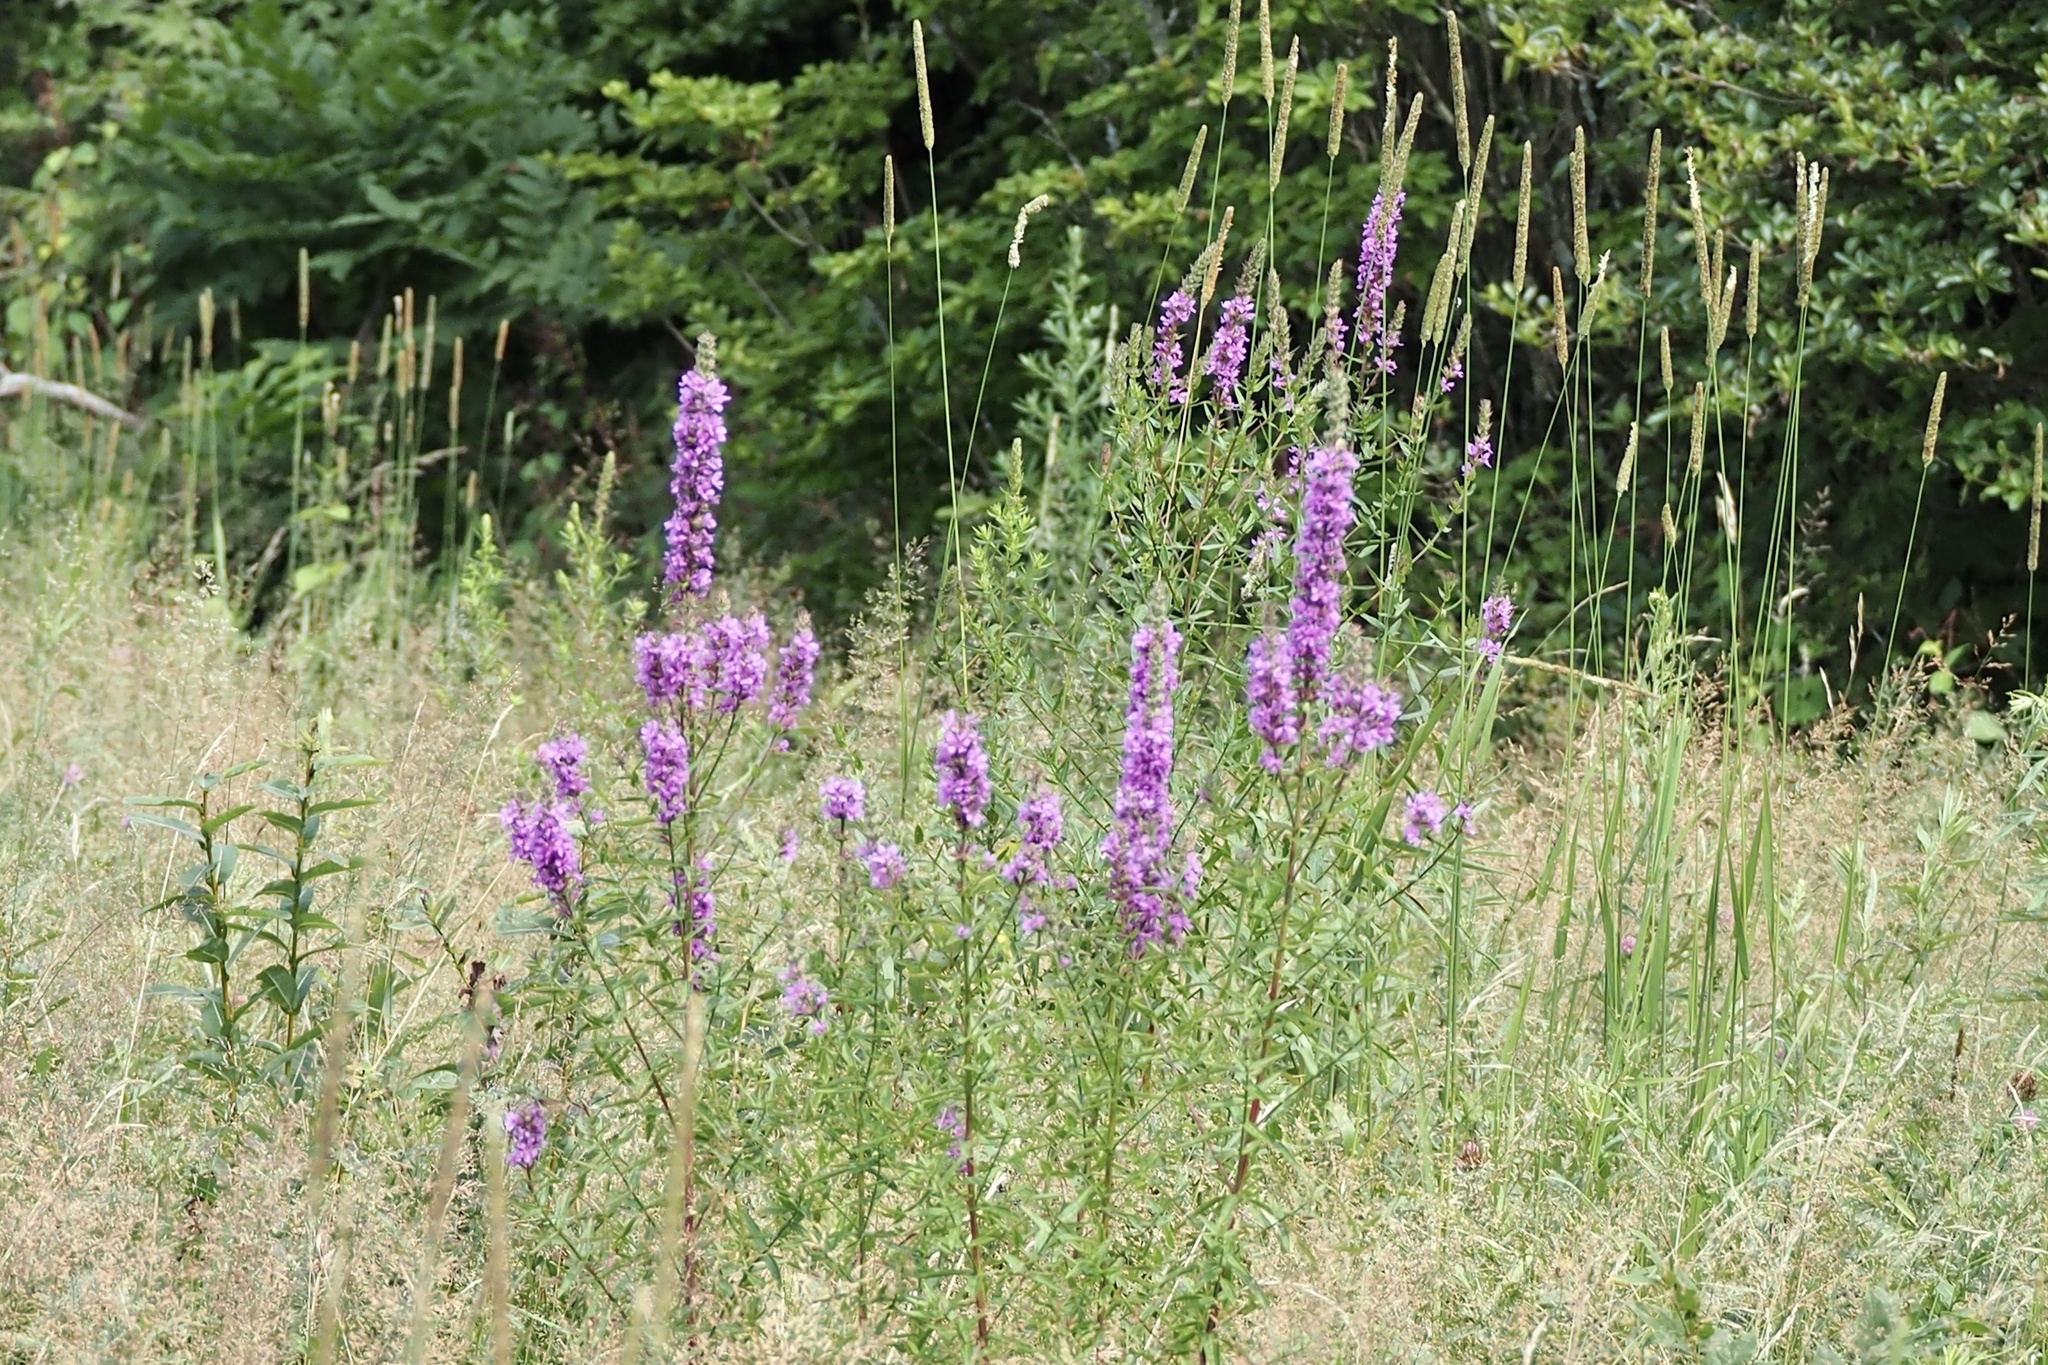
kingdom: Plantae
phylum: Tracheophyta
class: Magnoliopsida
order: Myrtales
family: Lythraceae
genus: Lythrum
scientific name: Lythrum salicaria
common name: Purple loosestrife
